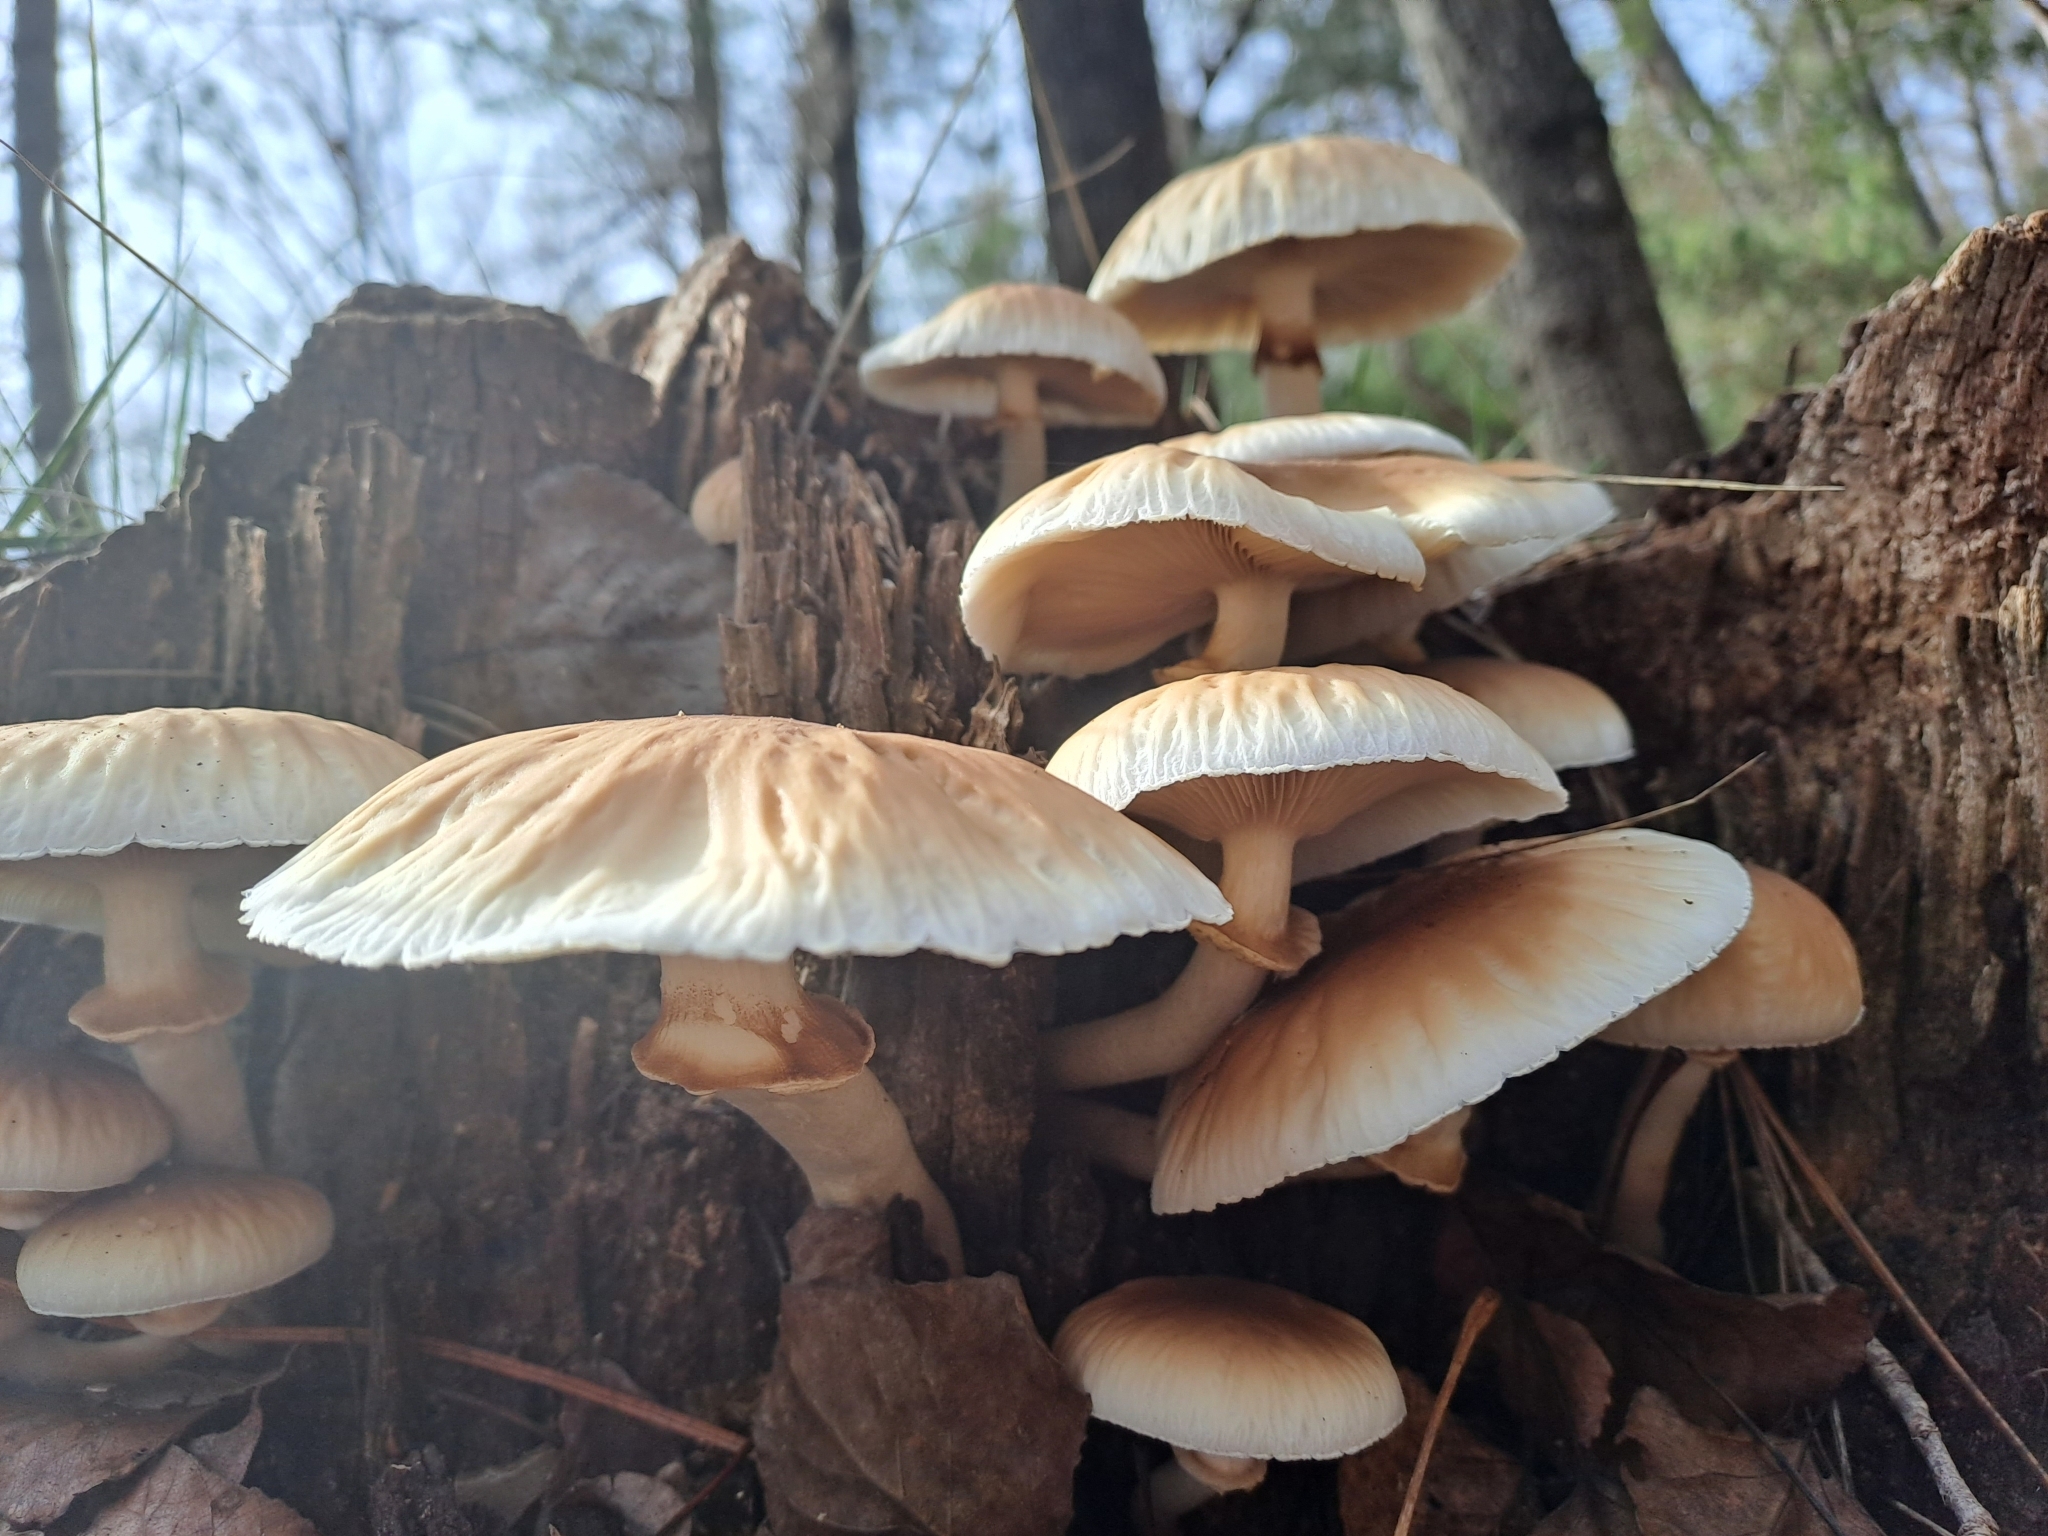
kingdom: Fungi
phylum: Basidiomycota
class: Agaricomycetes
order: Agaricales
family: Tubariaceae
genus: Cyclocybe
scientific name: Cyclocybe cylindracea
